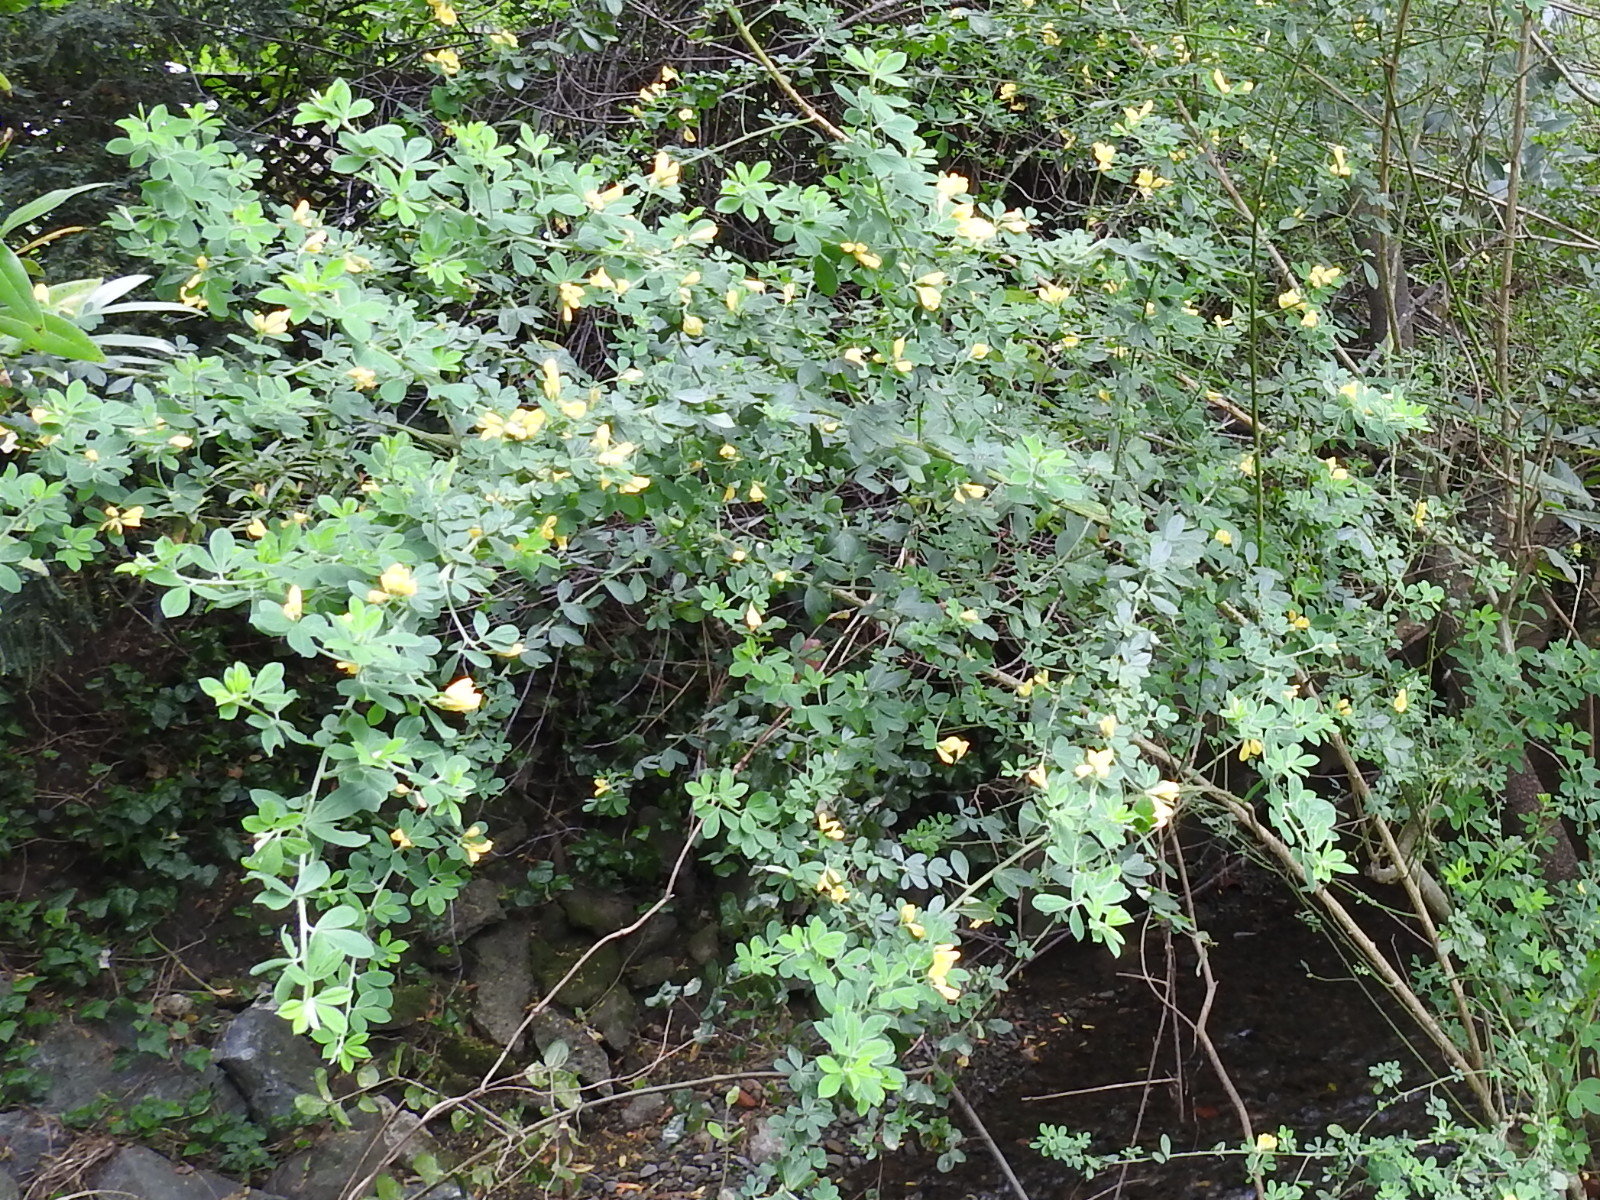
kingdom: Plantae
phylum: Tracheophyta
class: Magnoliopsida
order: Fabales
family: Fabaceae
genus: Genista
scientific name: Genista monspessulana
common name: Montpellier broom
